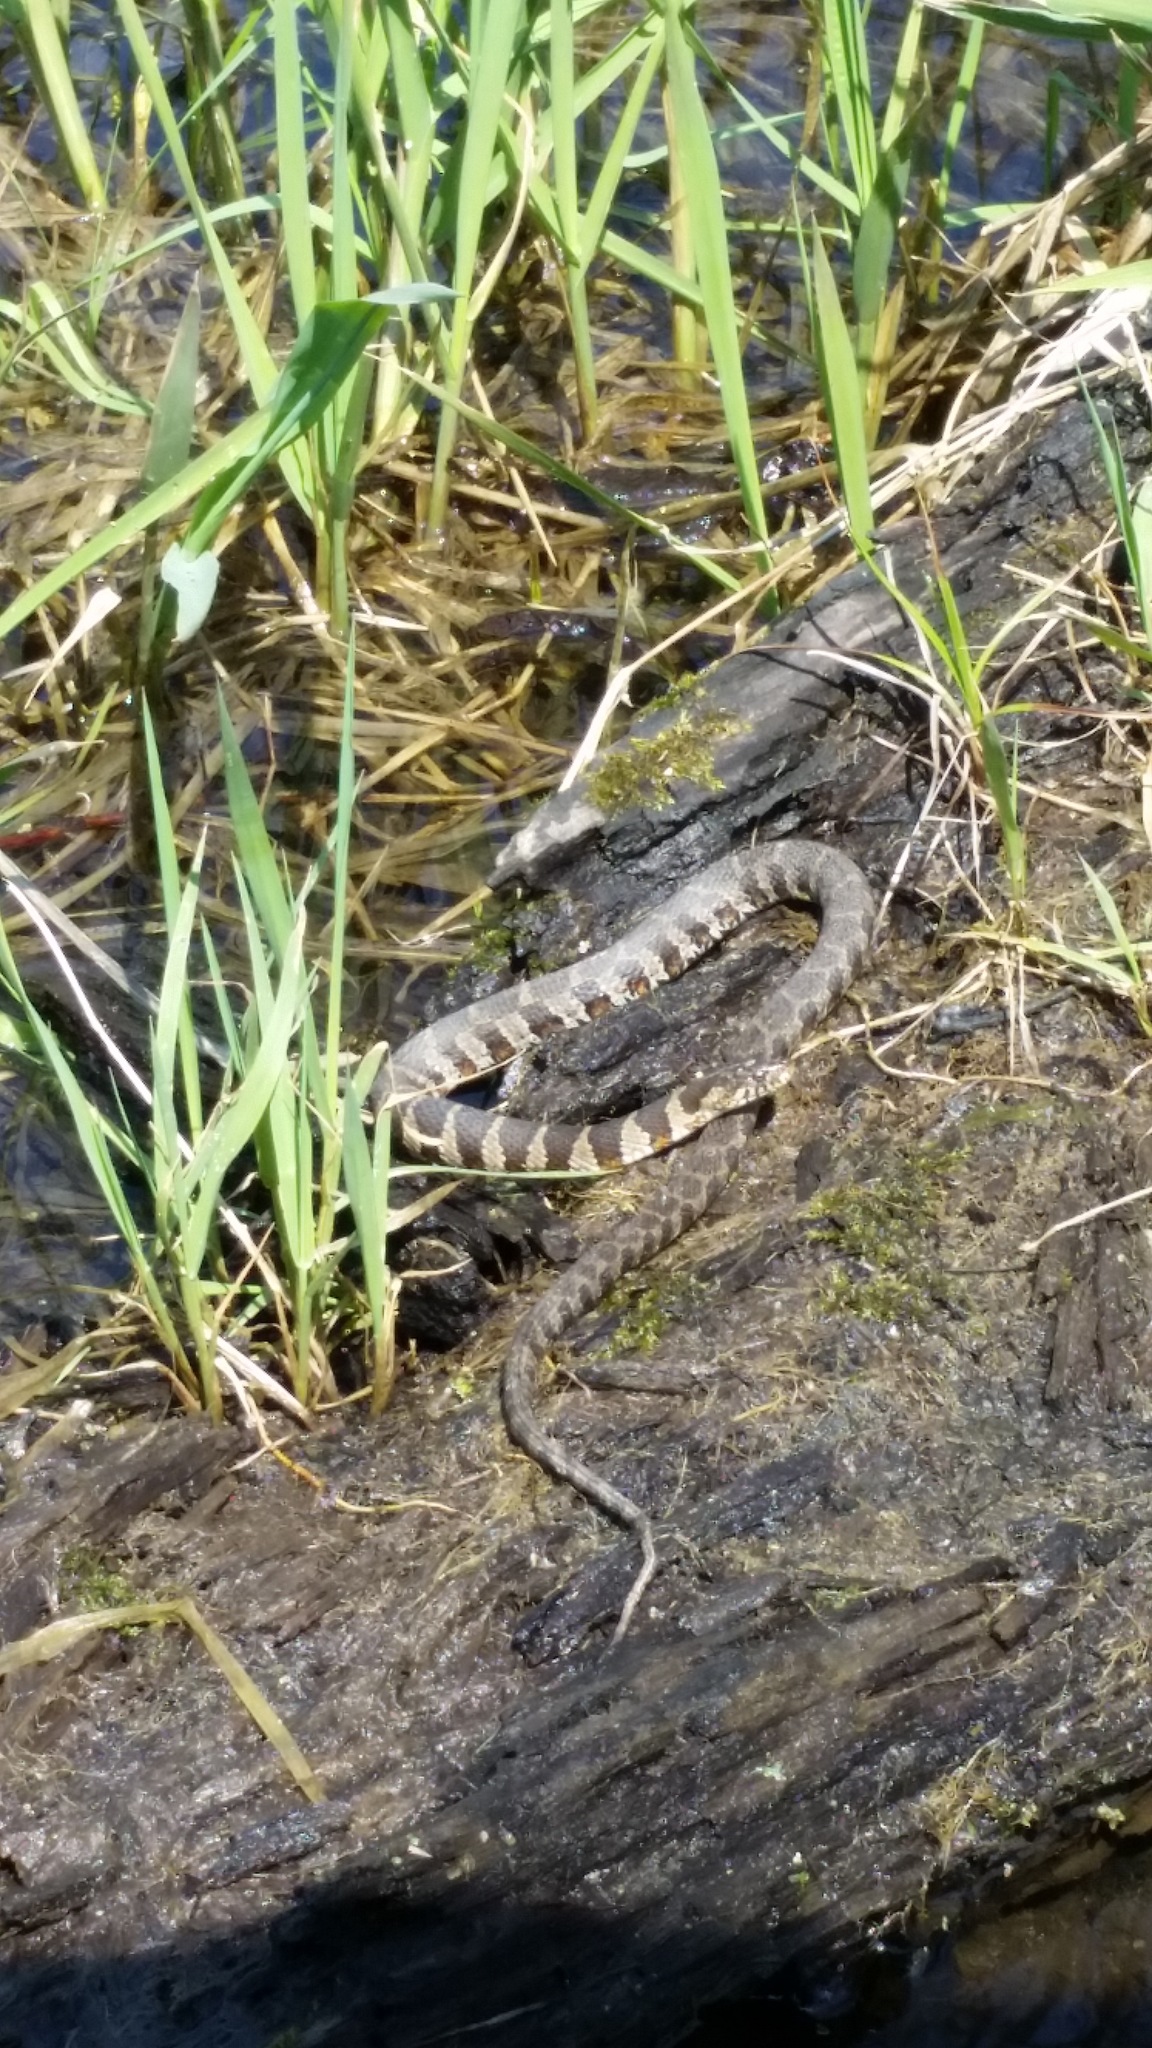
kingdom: Animalia
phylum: Chordata
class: Squamata
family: Colubridae
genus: Nerodia
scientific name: Nerodia sipedon
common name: Northern water snake
